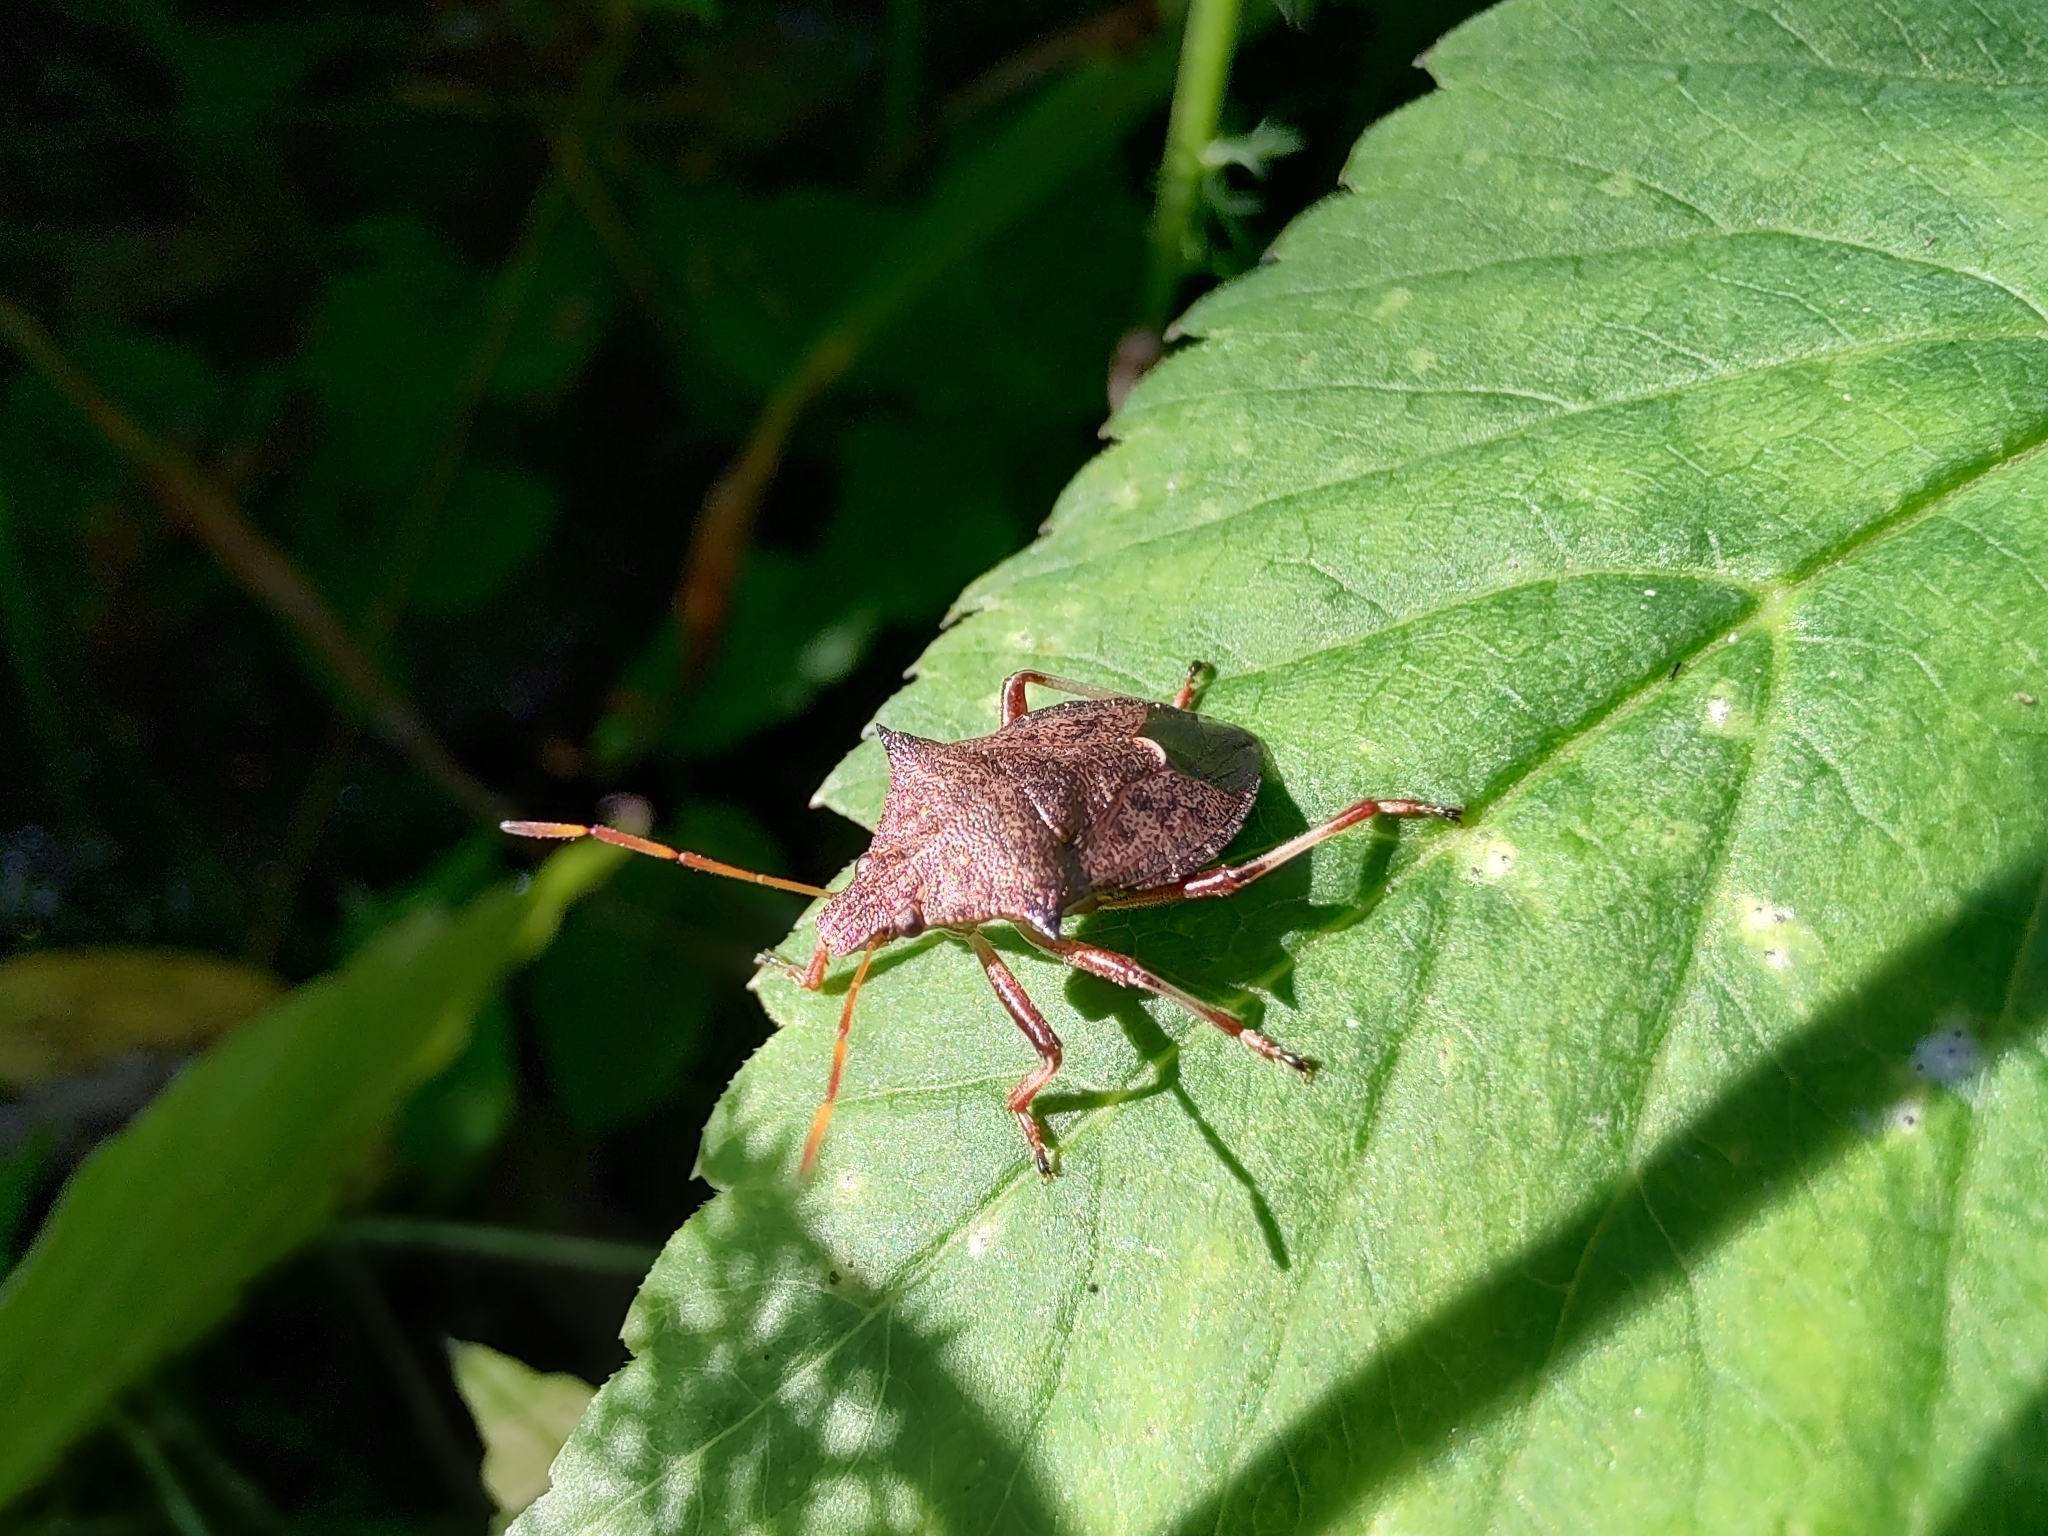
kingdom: Animalia
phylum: Arthropoda
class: Insecta
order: Hemiptera
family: Pentatomidae
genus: Picromerus
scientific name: Picromerus bidens
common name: Spiked shieldbug
